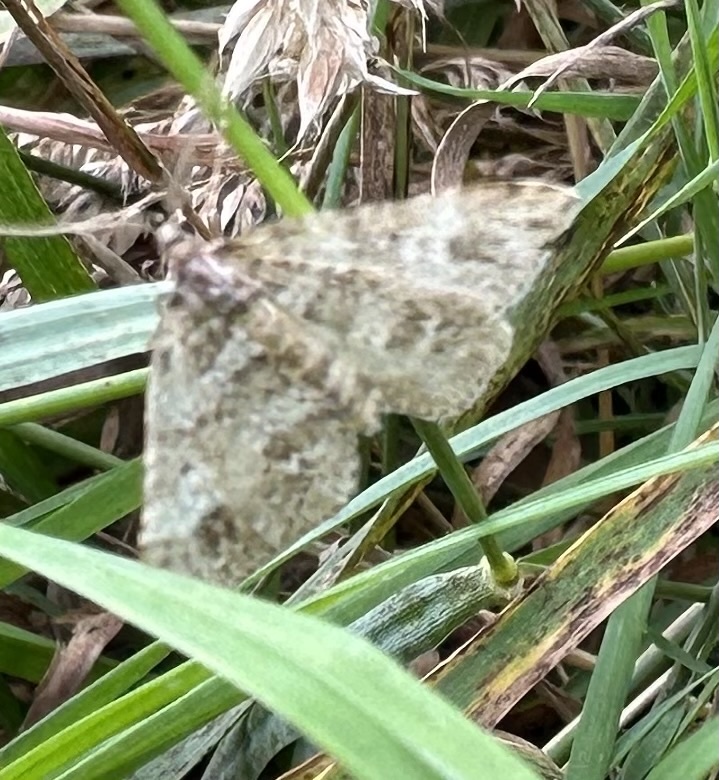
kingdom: Animalia
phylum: Arthropoda
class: Insecta
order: Lepidoptera
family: Geometridae
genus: Perizoma
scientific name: Perizoma didymata
